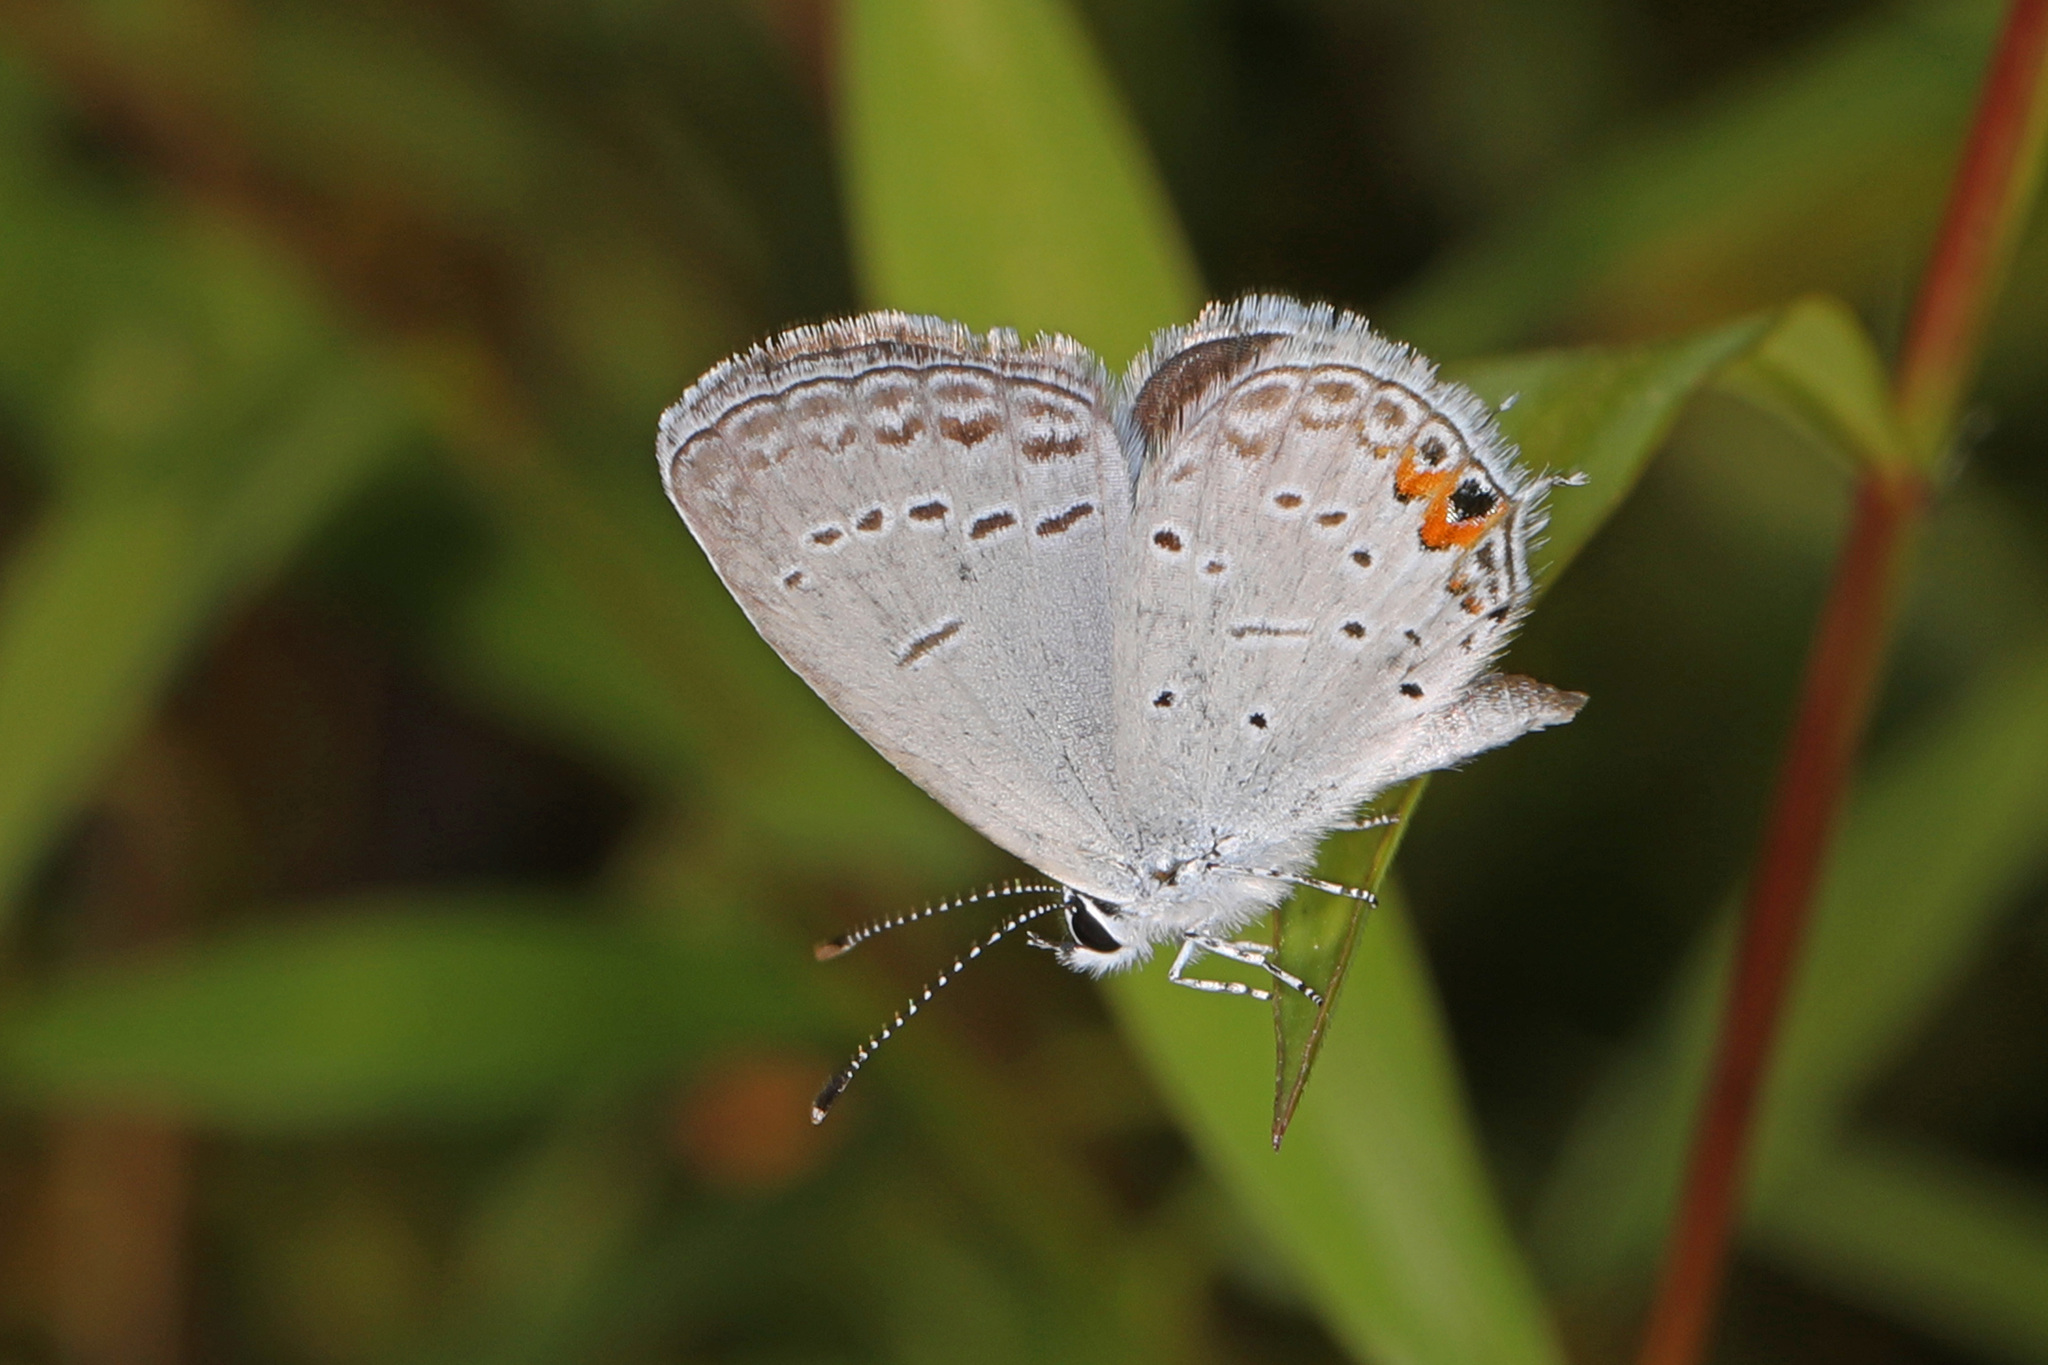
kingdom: Animalia
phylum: Arthropoda
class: Insecta
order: Lepidoptera
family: Lycaenidae
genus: Elkalyce
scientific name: Elkalyce comyntas
